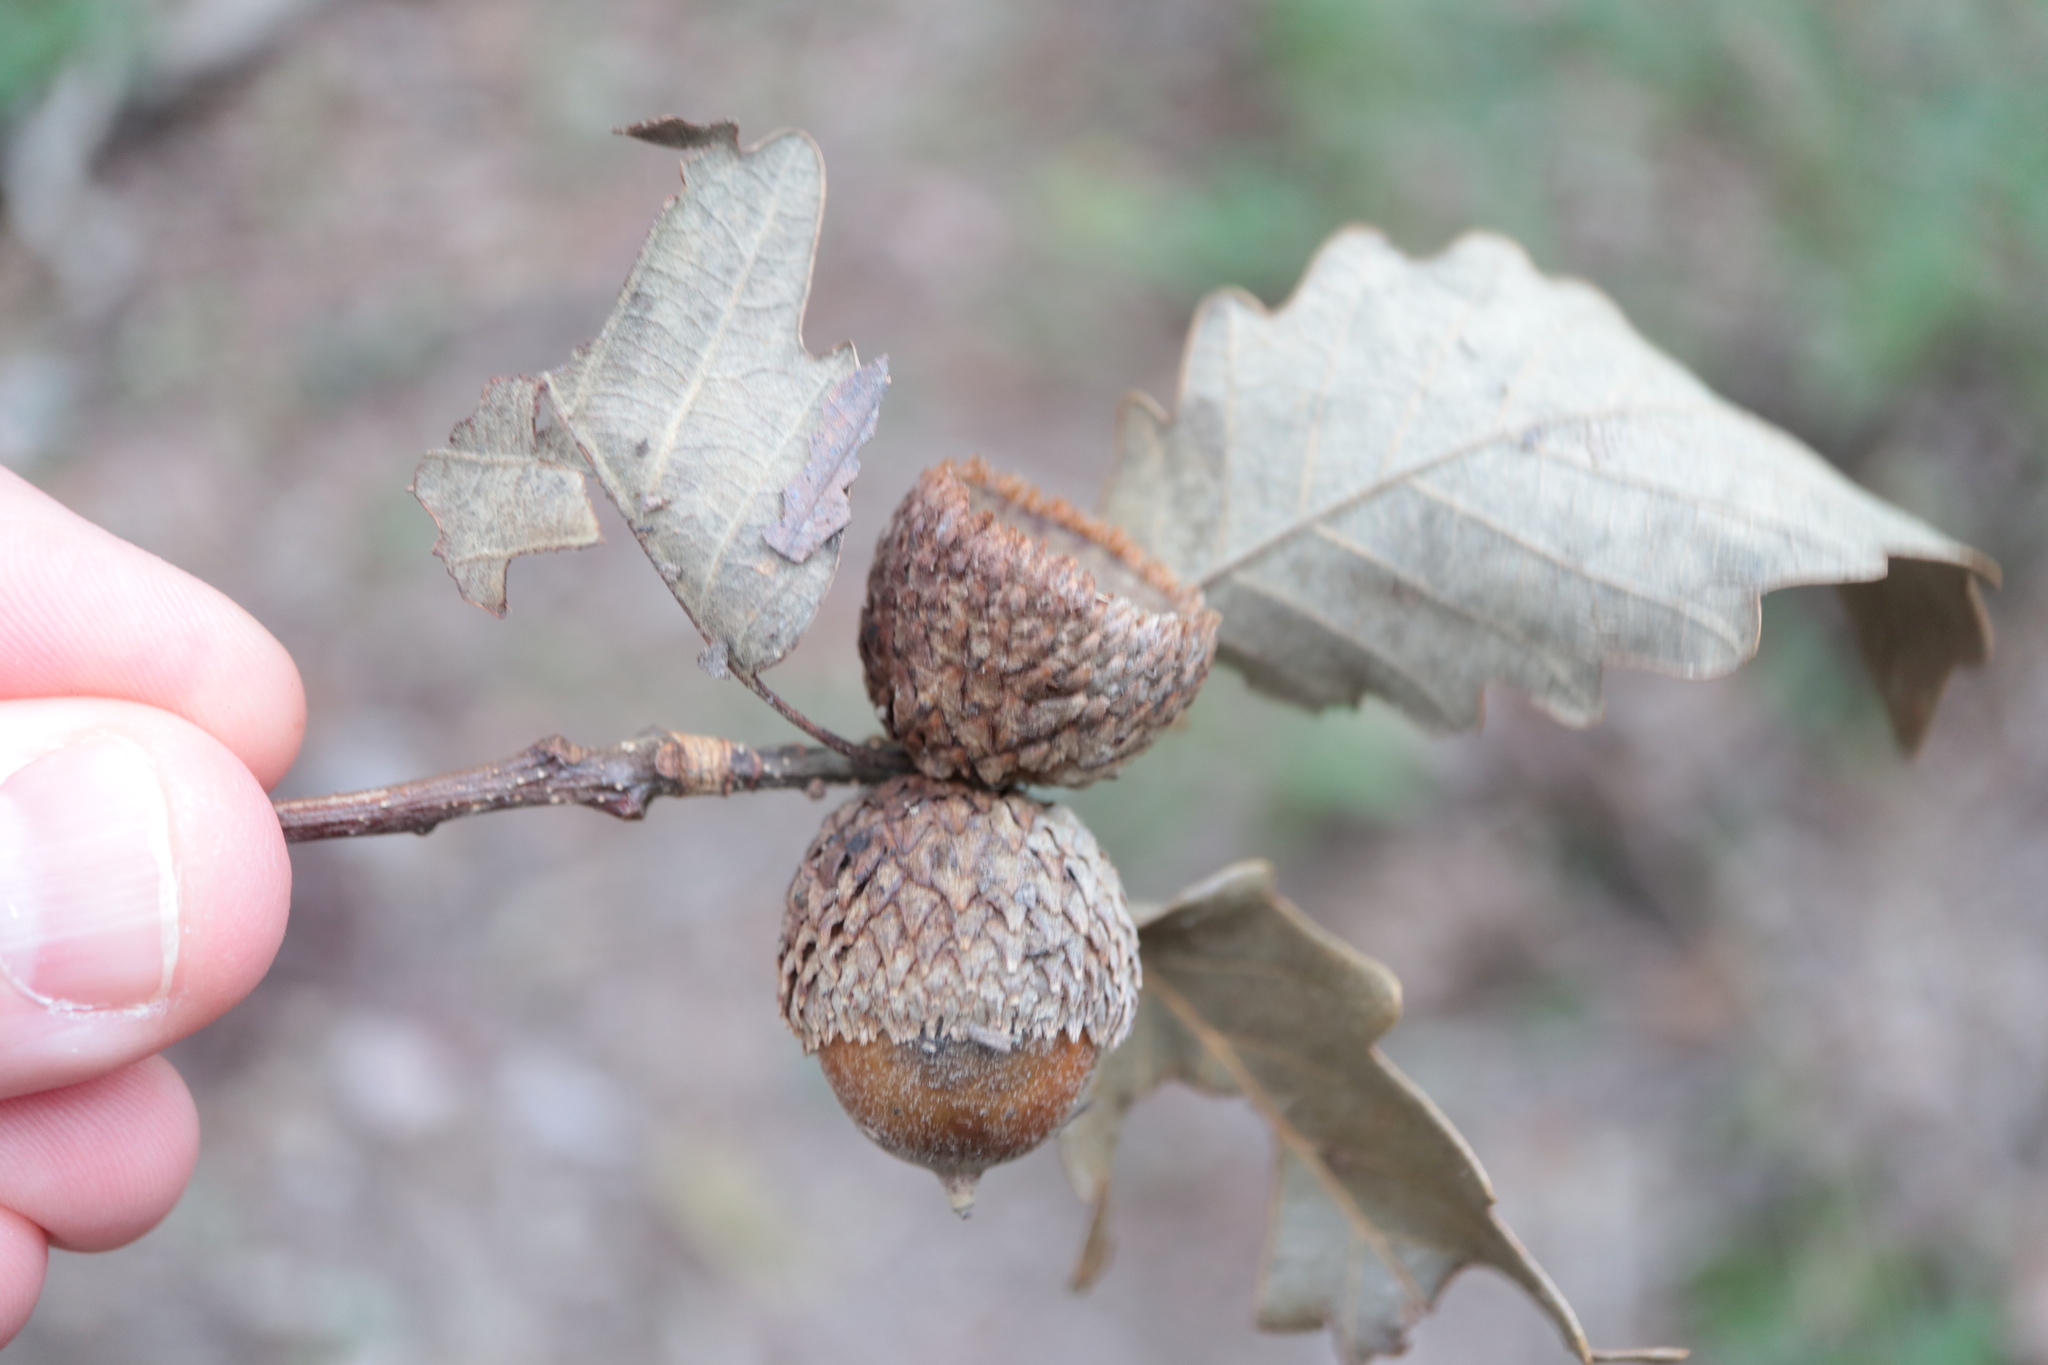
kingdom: Plantae
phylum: Tracheophyta
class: Magnoliopsida
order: Fagales
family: Fagaceae
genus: Quercus
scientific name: Quercus michauxii
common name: Swamp chestnut oak
